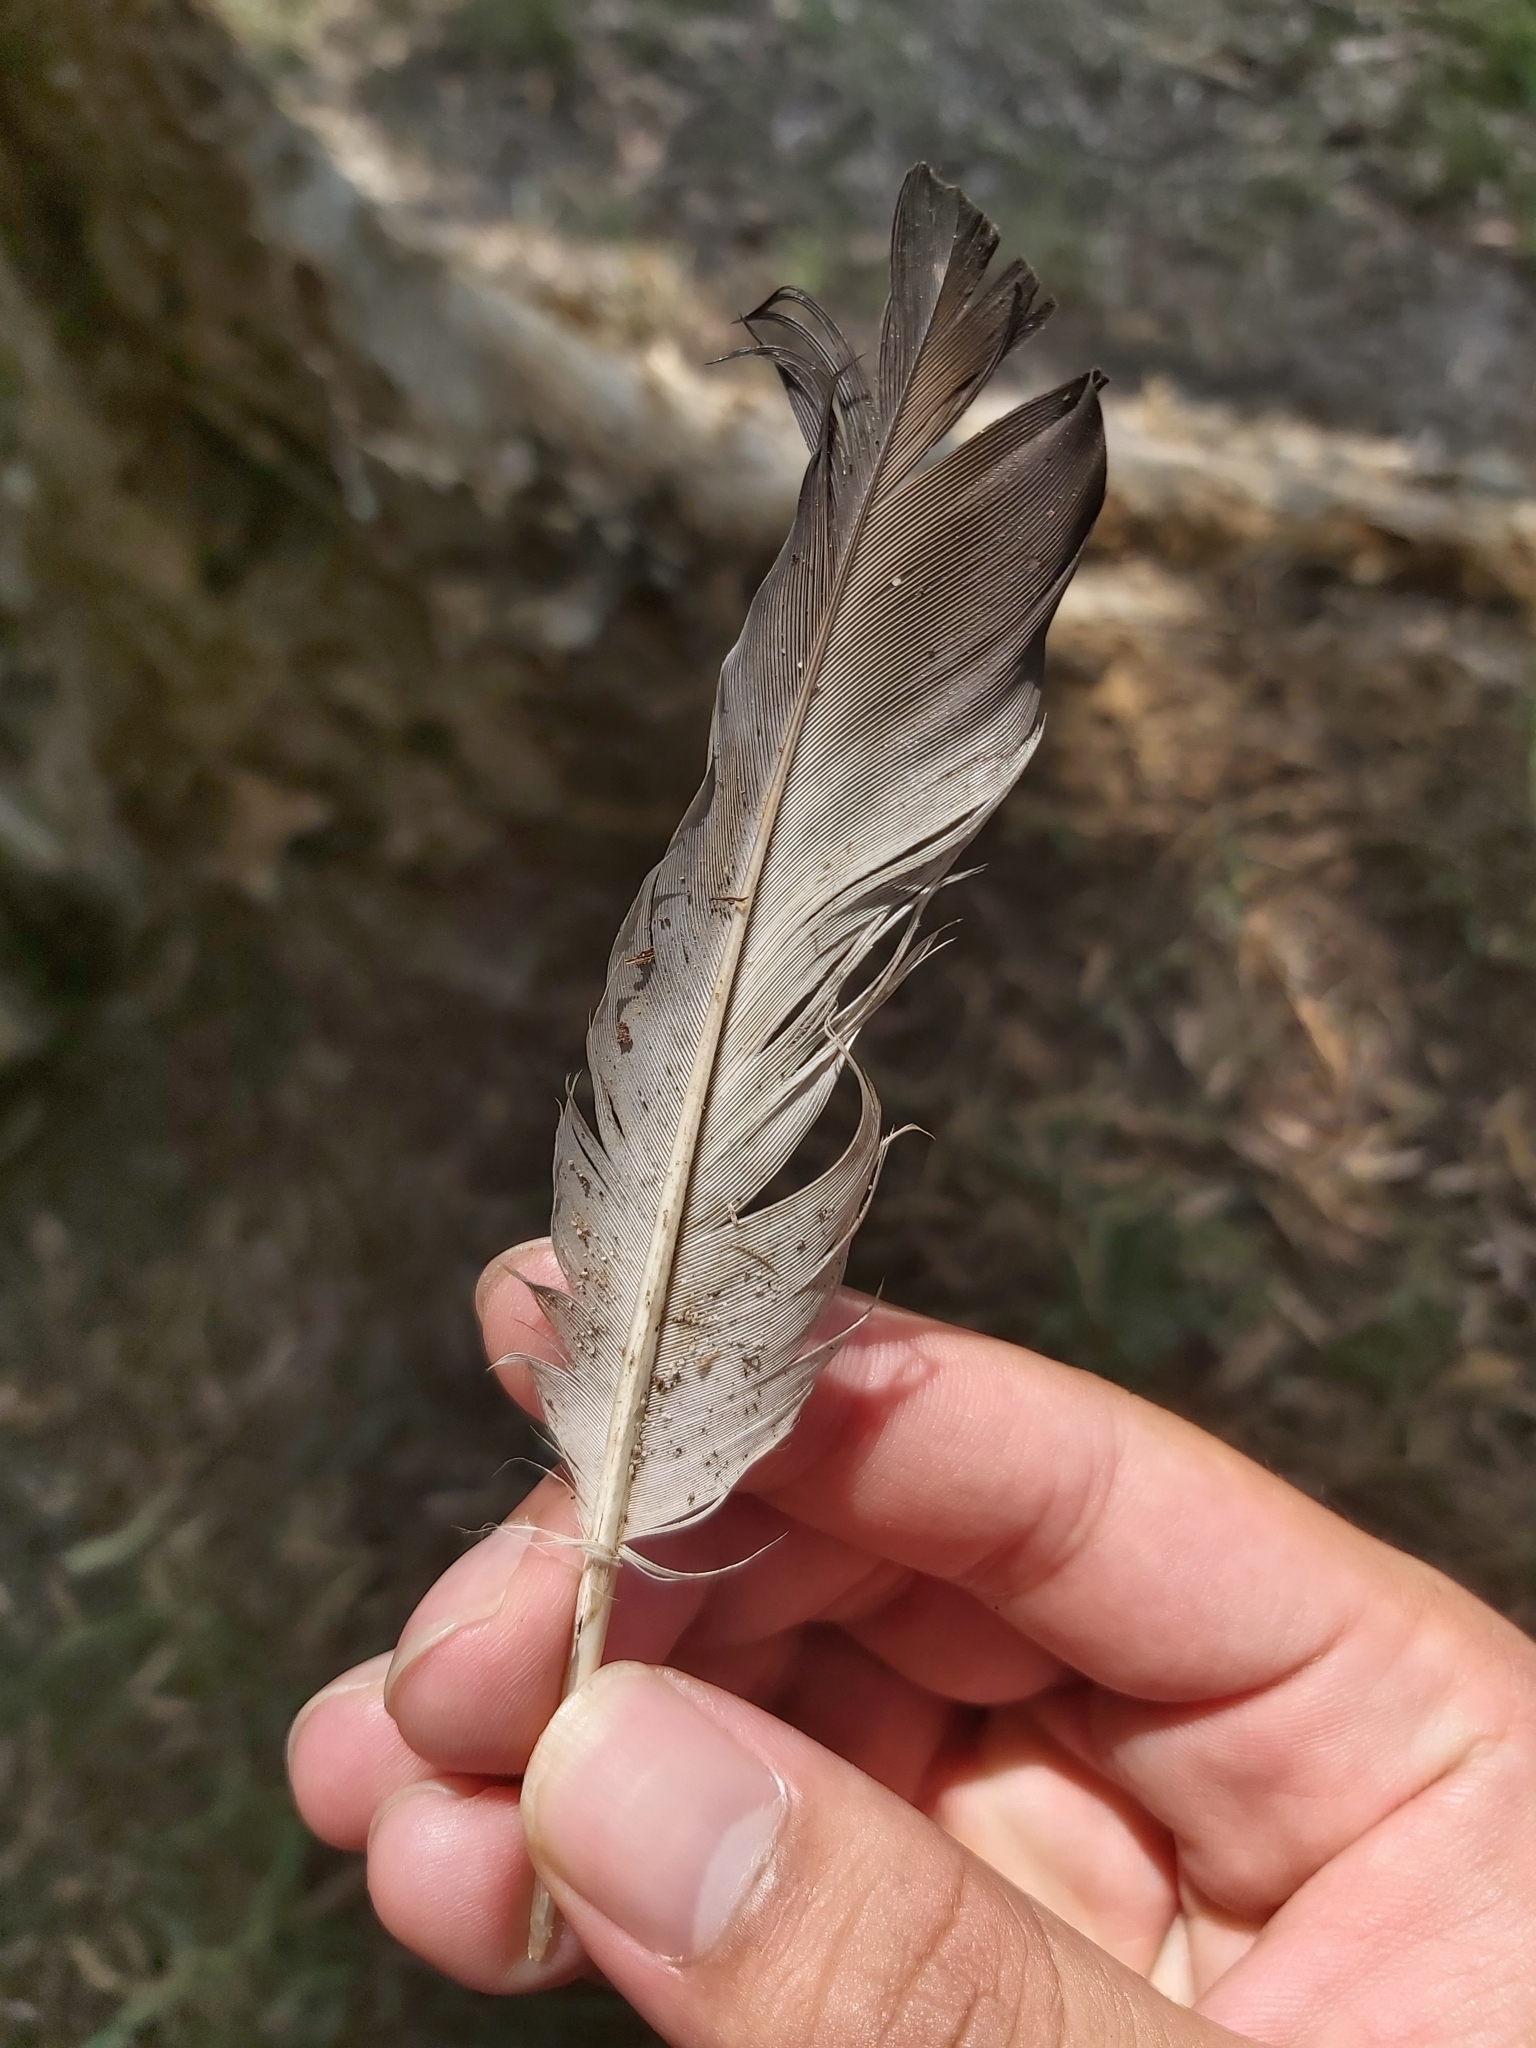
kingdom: Animalia
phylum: Chordata
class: Aves
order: Columbiformes
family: Columbidae
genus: Columba
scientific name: Columba livia
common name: Rock pigeon
